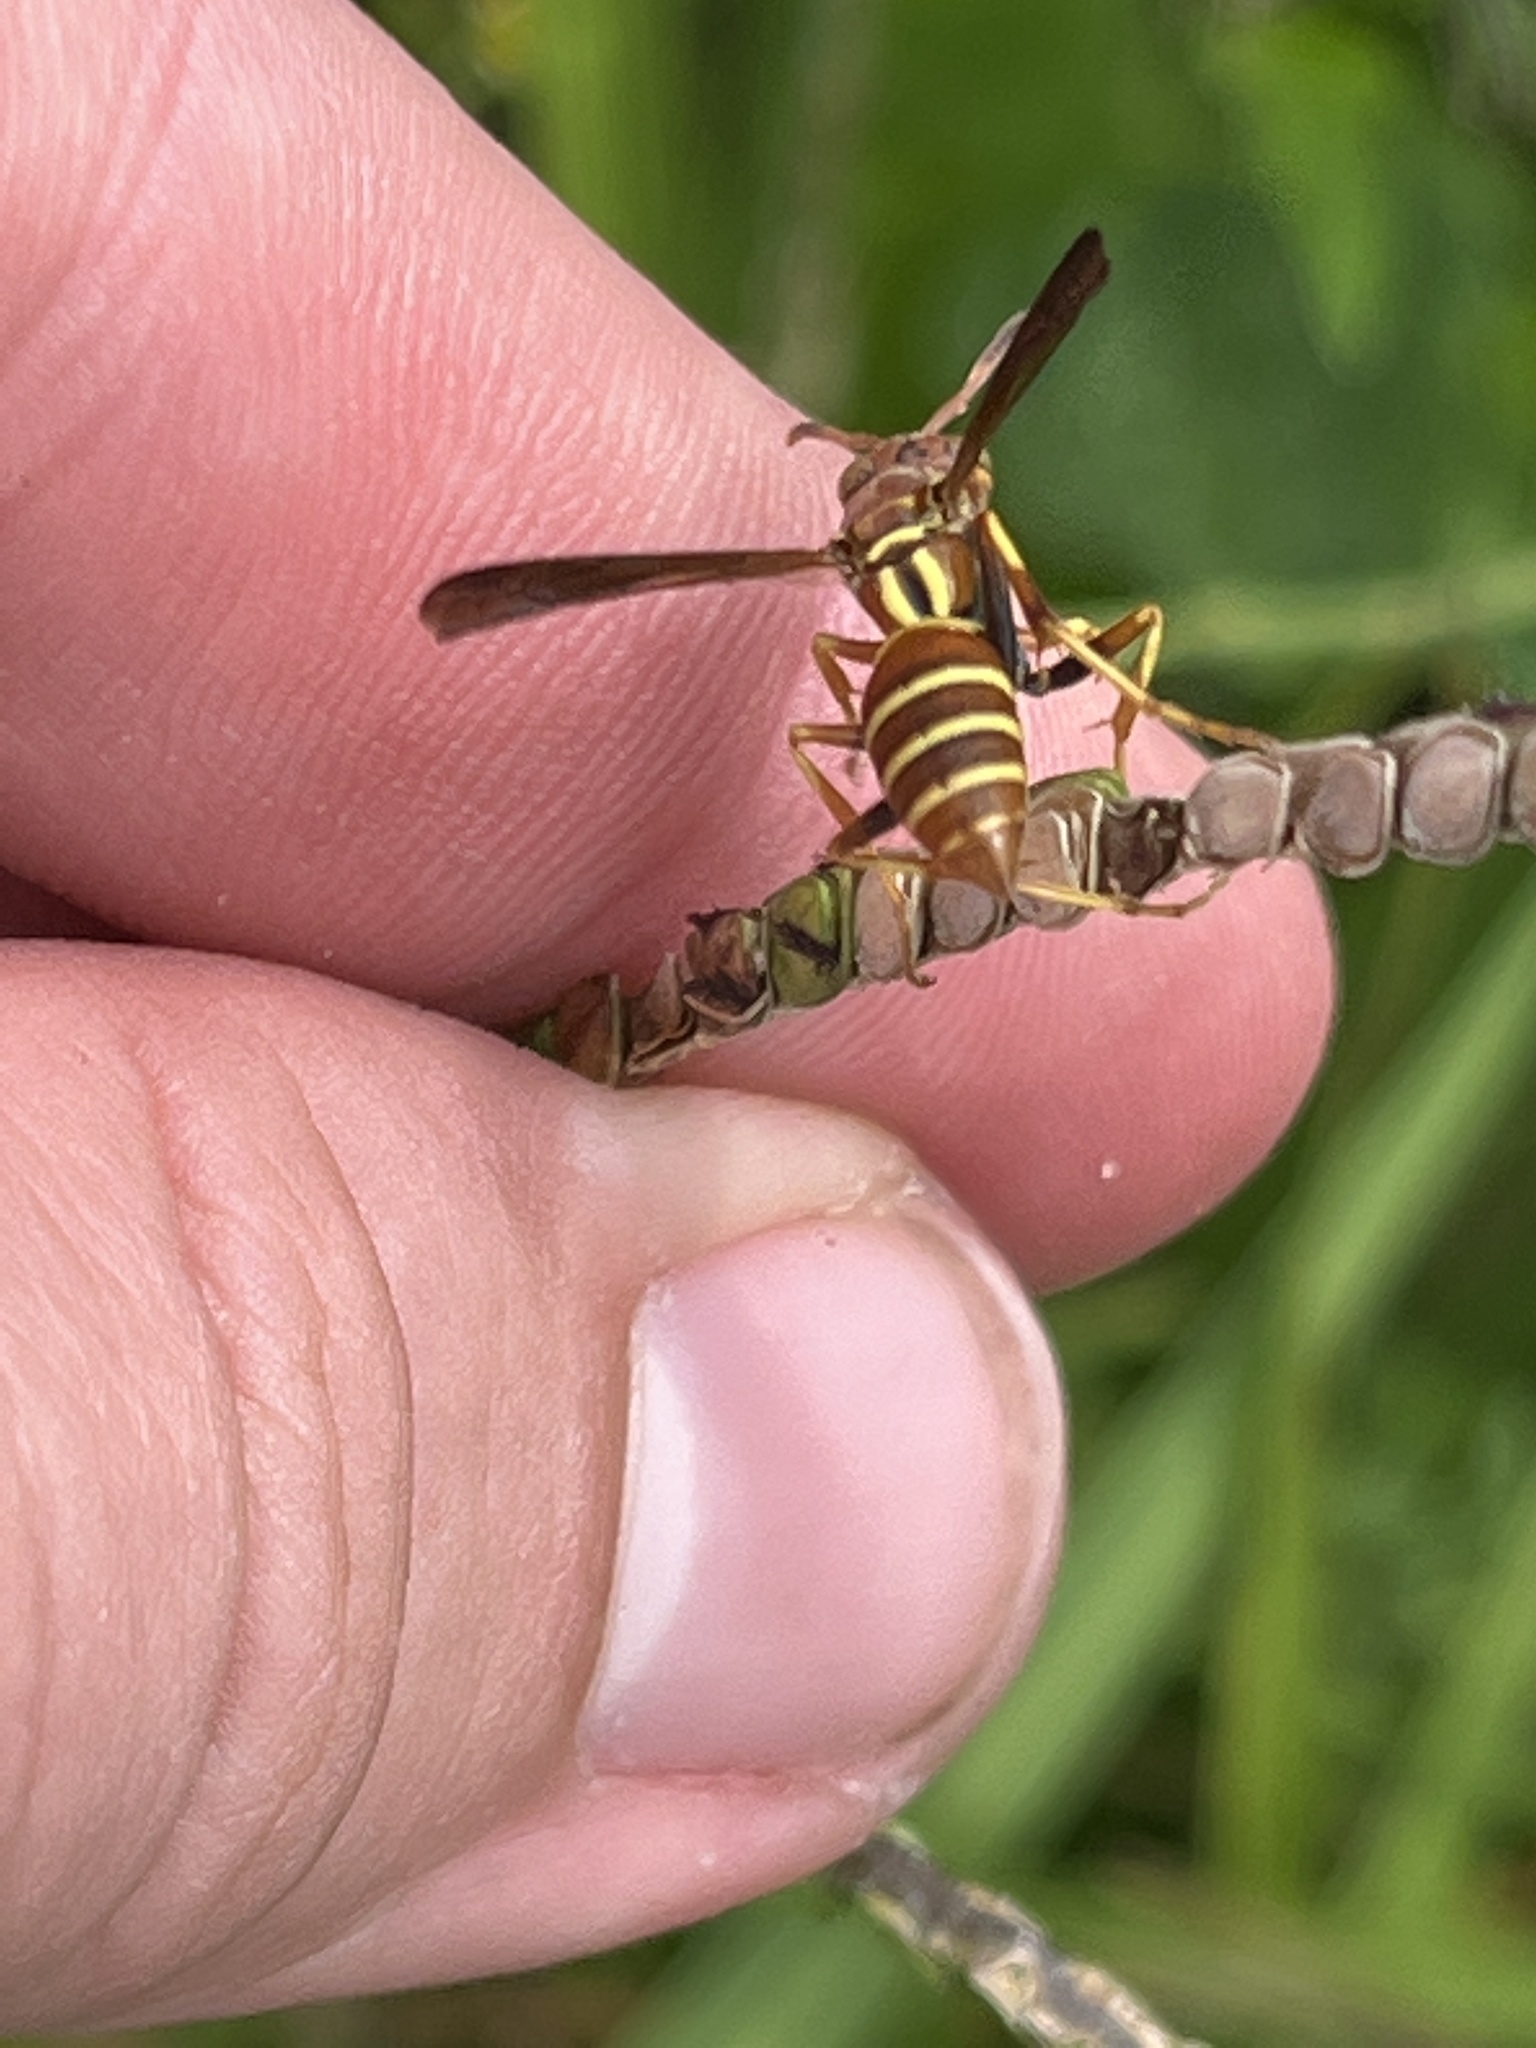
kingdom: Animalia
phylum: Arthropoda
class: Insecta
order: Hymenoptera
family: Eumenidae
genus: Polistes
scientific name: Polistes dorsalis
